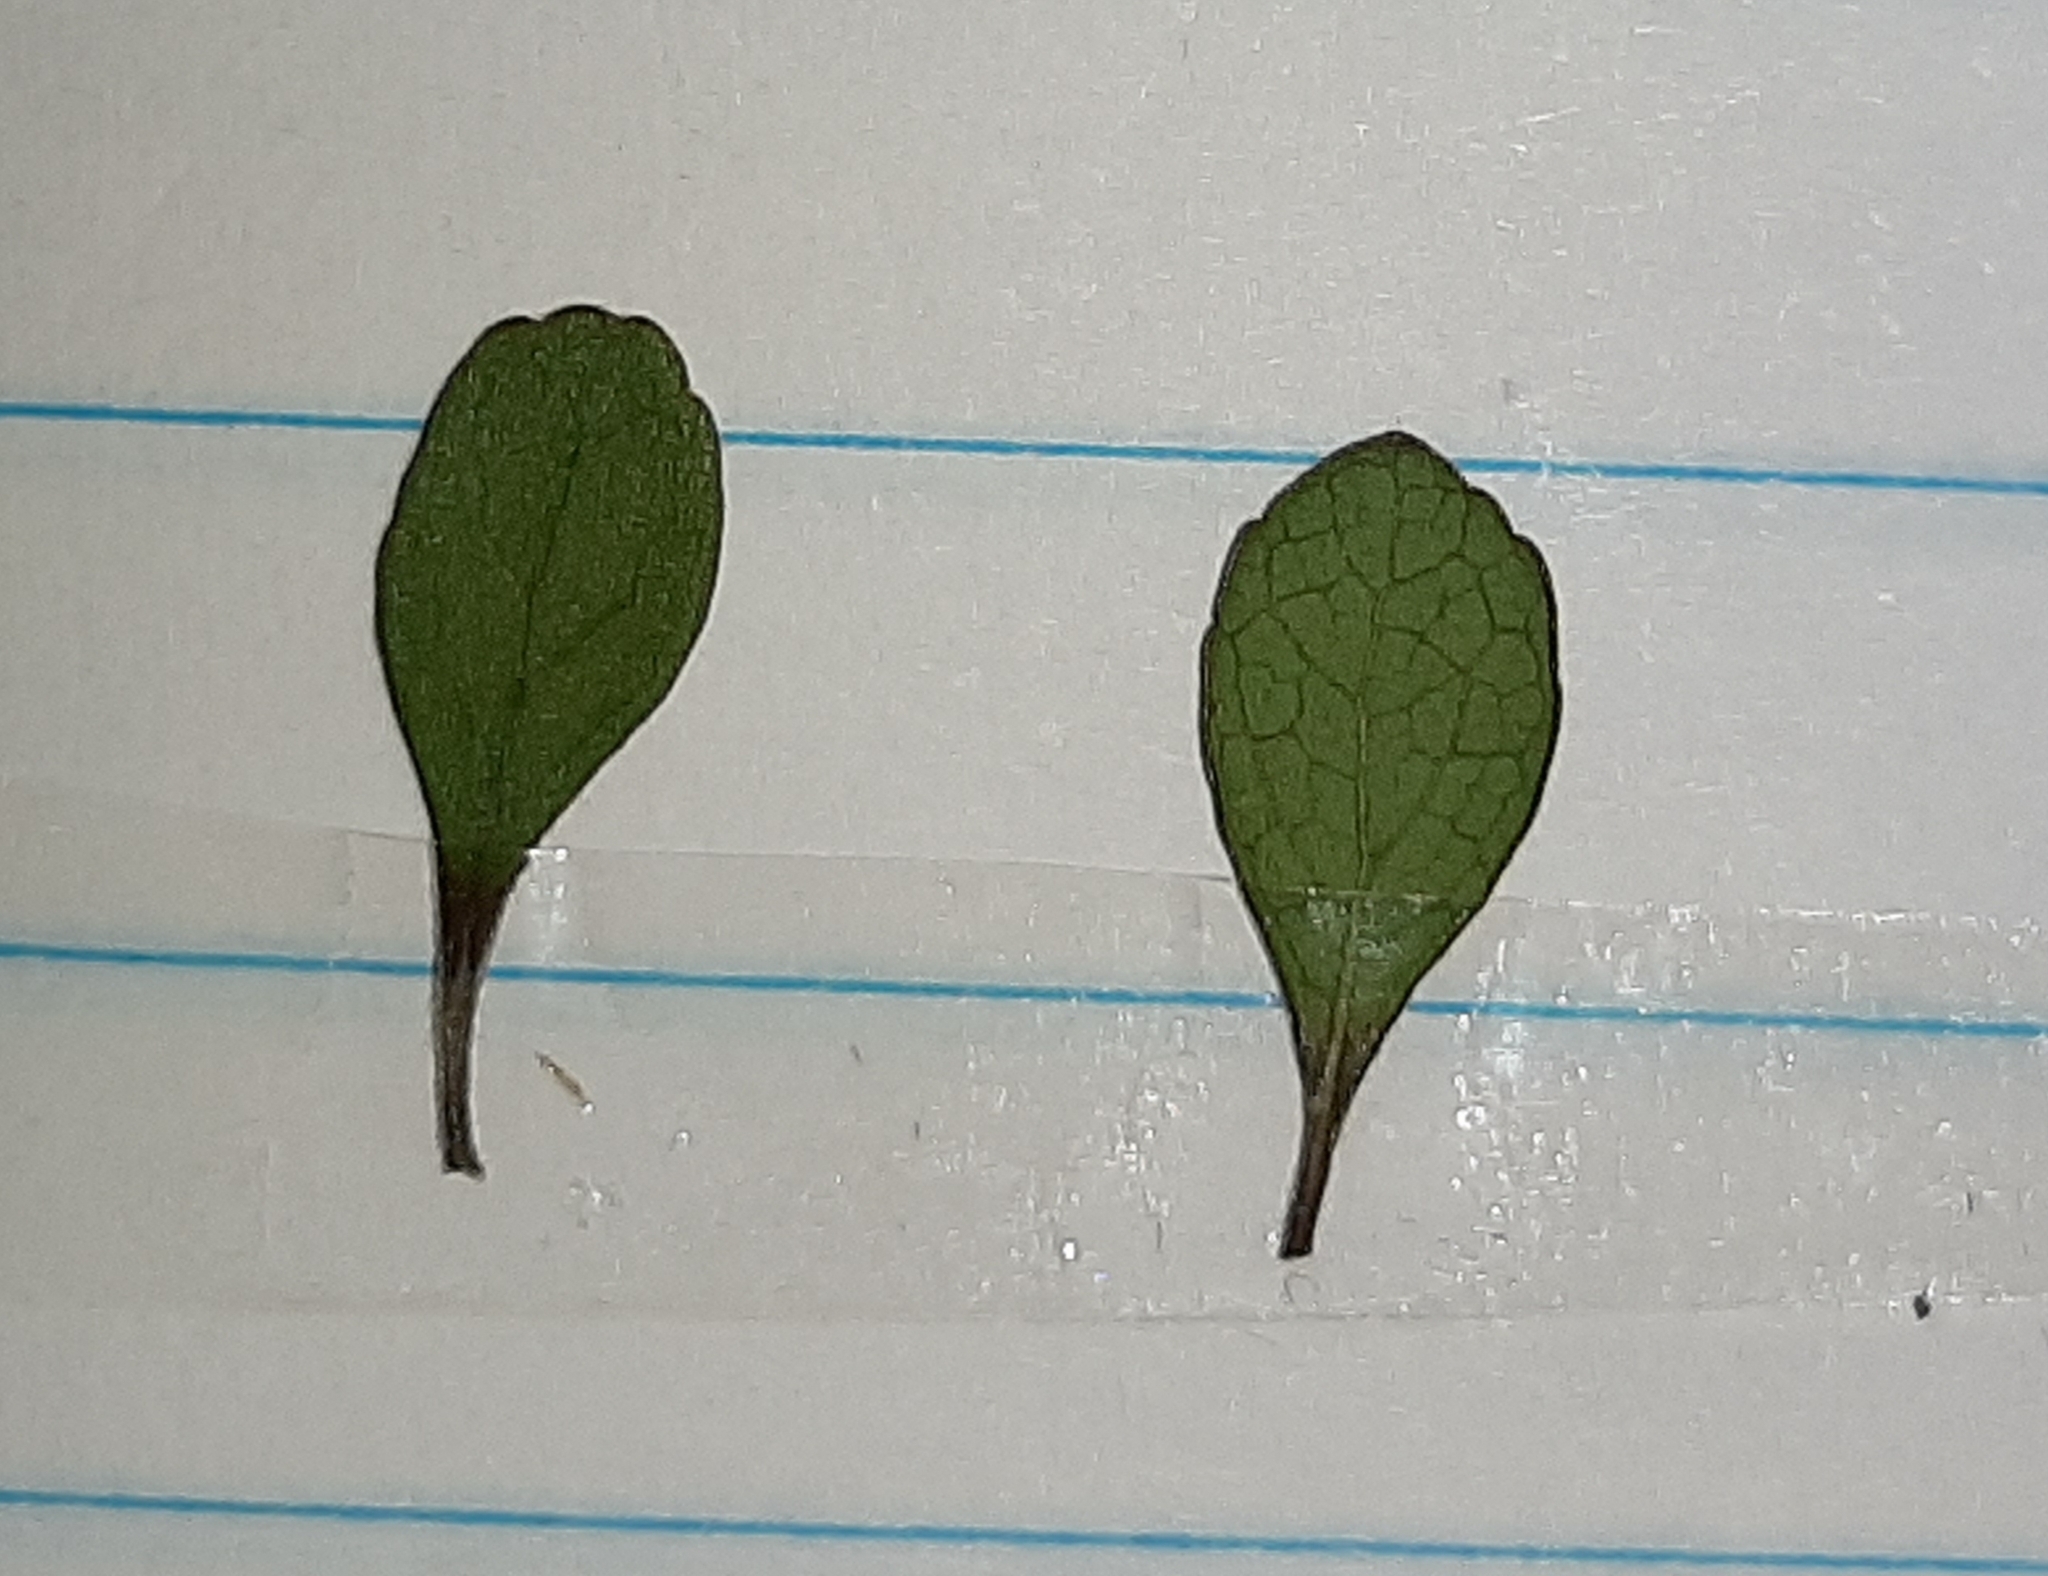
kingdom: Plantae
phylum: Tracheophyta
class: Magnoliopsida
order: Oxalidales
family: Elaeocarpaceae
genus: Aristotelia
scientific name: Aristotelia fruticosa
